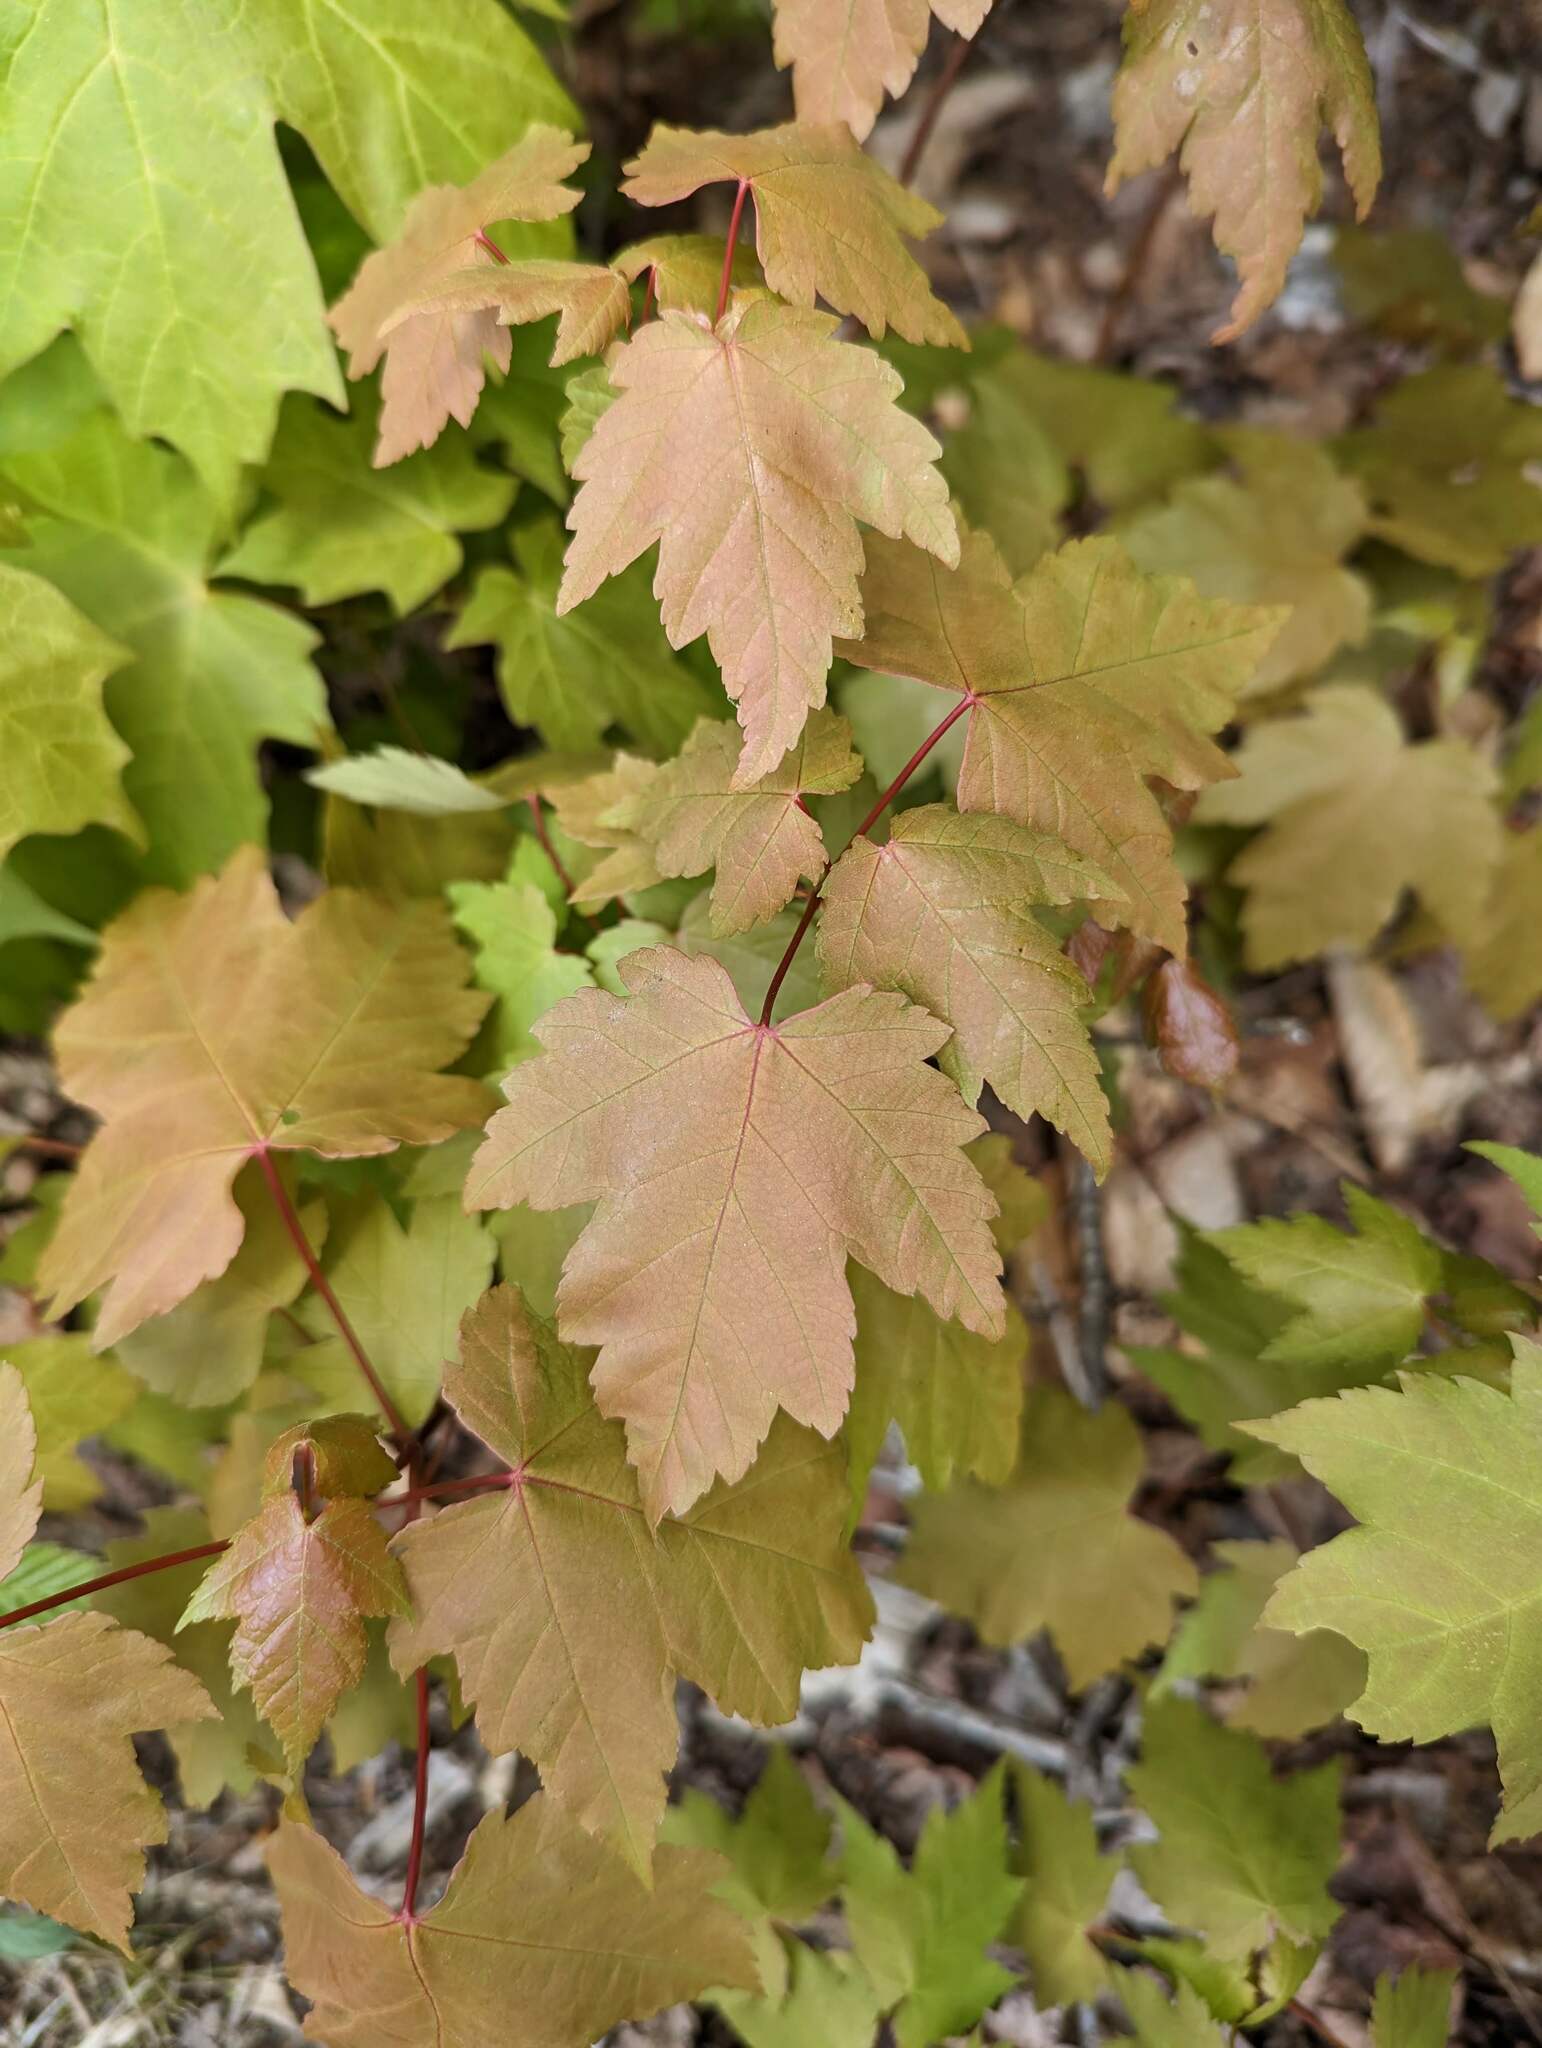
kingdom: Plantae
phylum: Tracheophyta
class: Magnoliopsida
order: Sapindales
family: Sapindaceae
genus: Acer
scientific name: Acer rubrum
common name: Red maple
